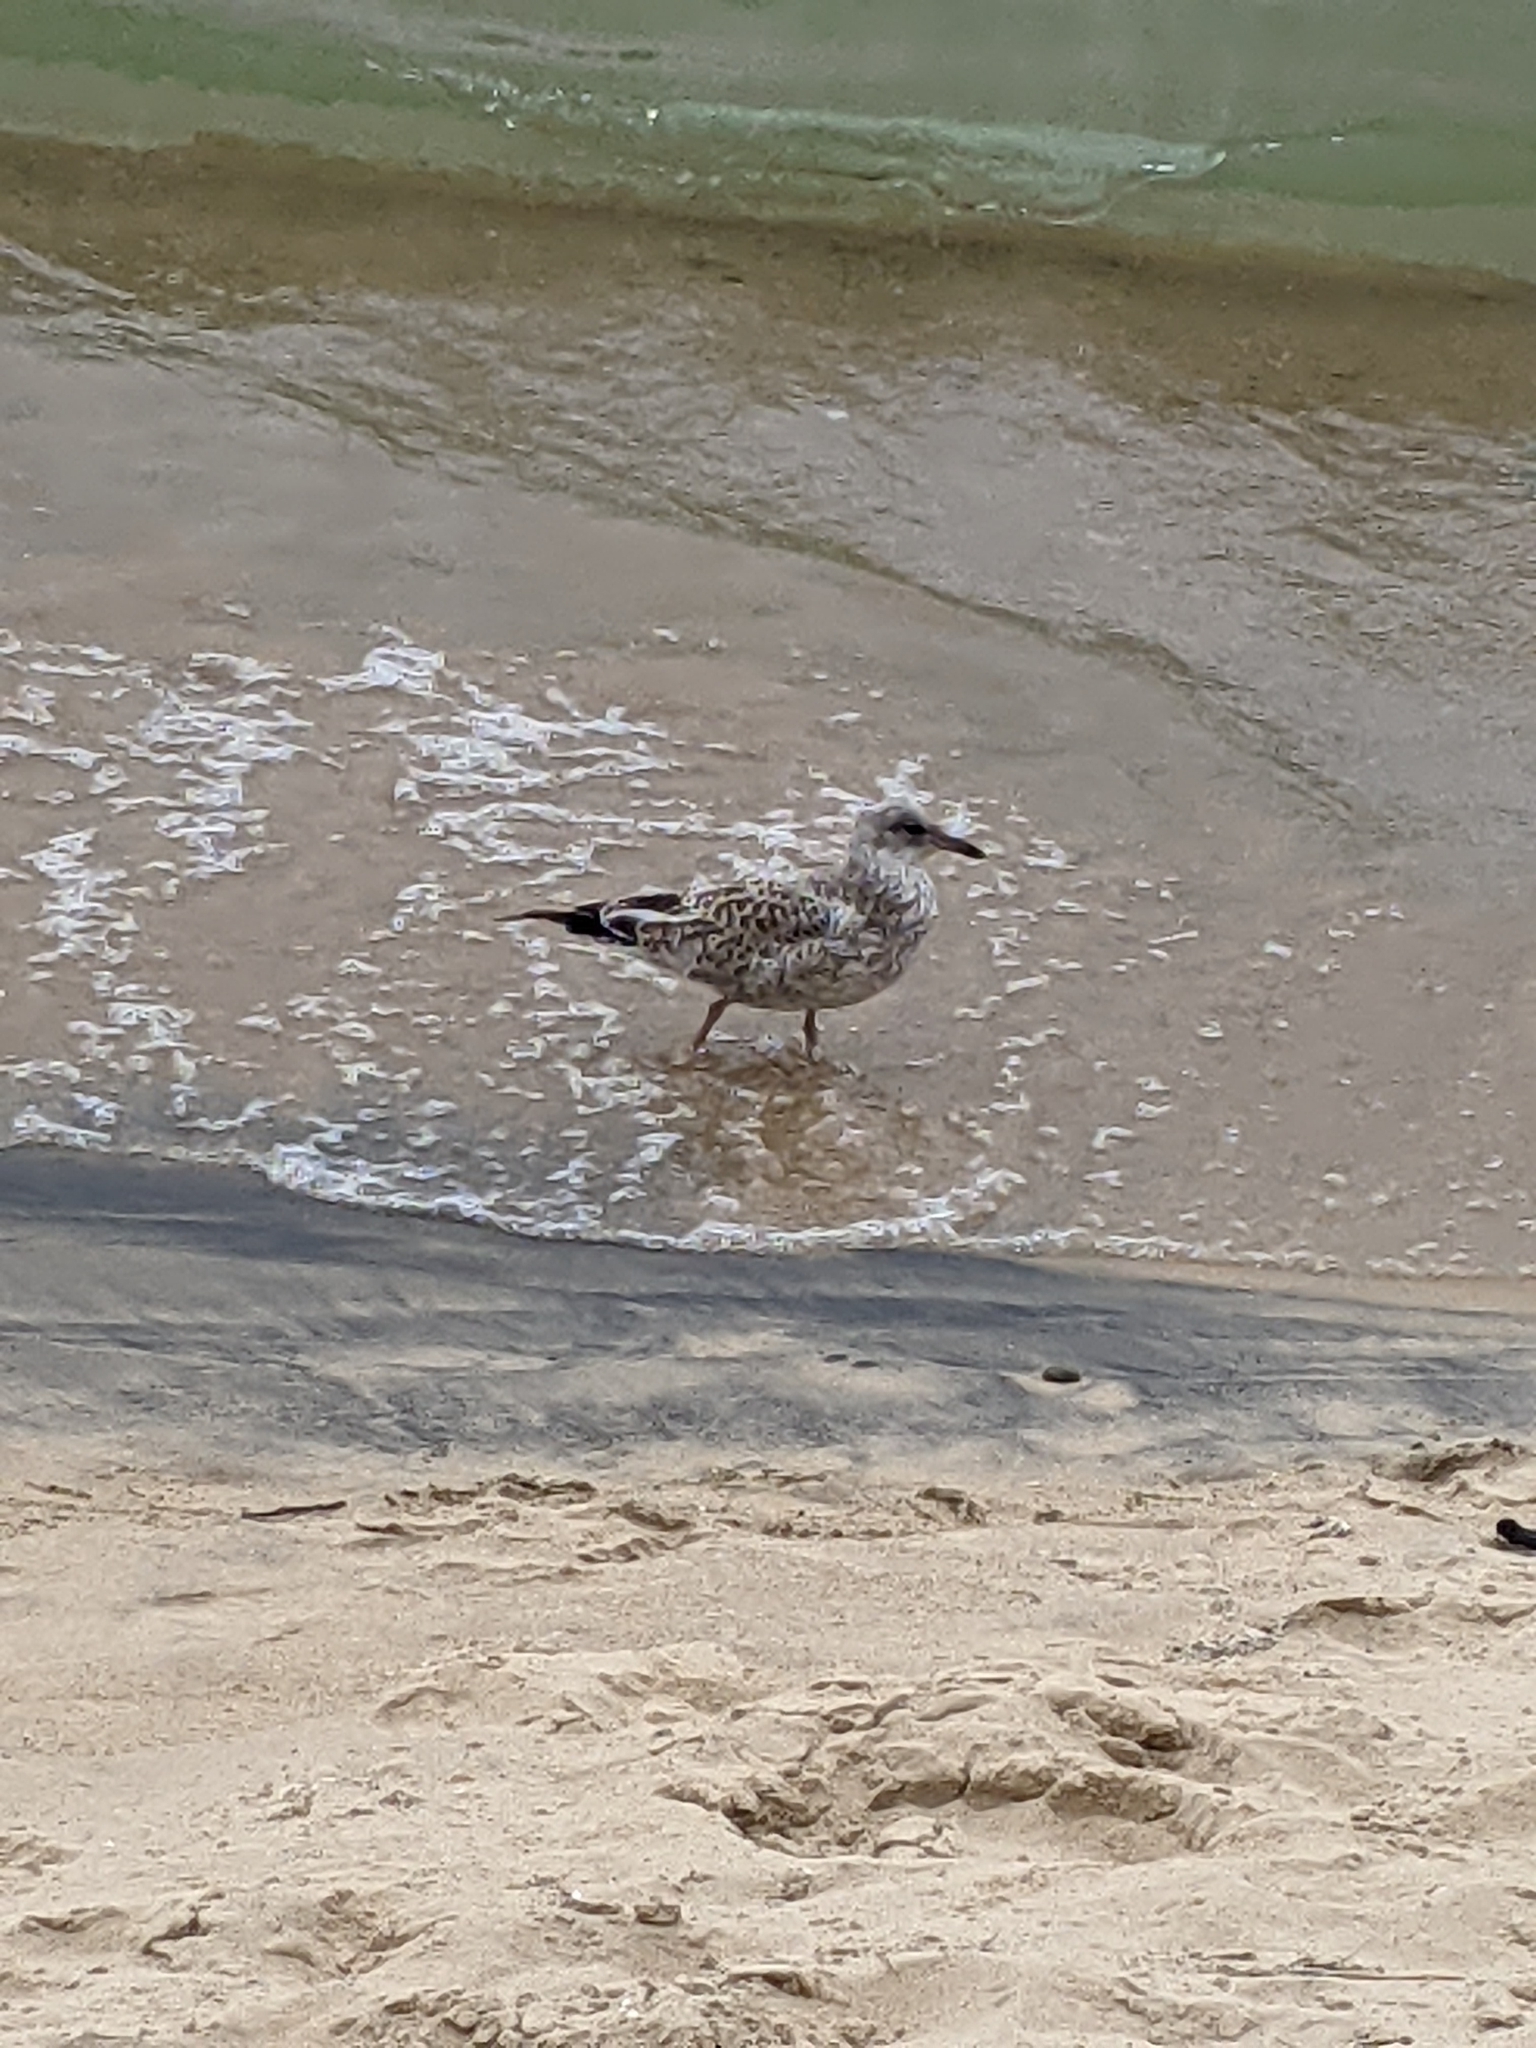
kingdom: Animalia
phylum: Chordata
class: Aves
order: Charadriiformes
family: Laridae
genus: Larus
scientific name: Larus delawarensis
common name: Ring-billed gull
